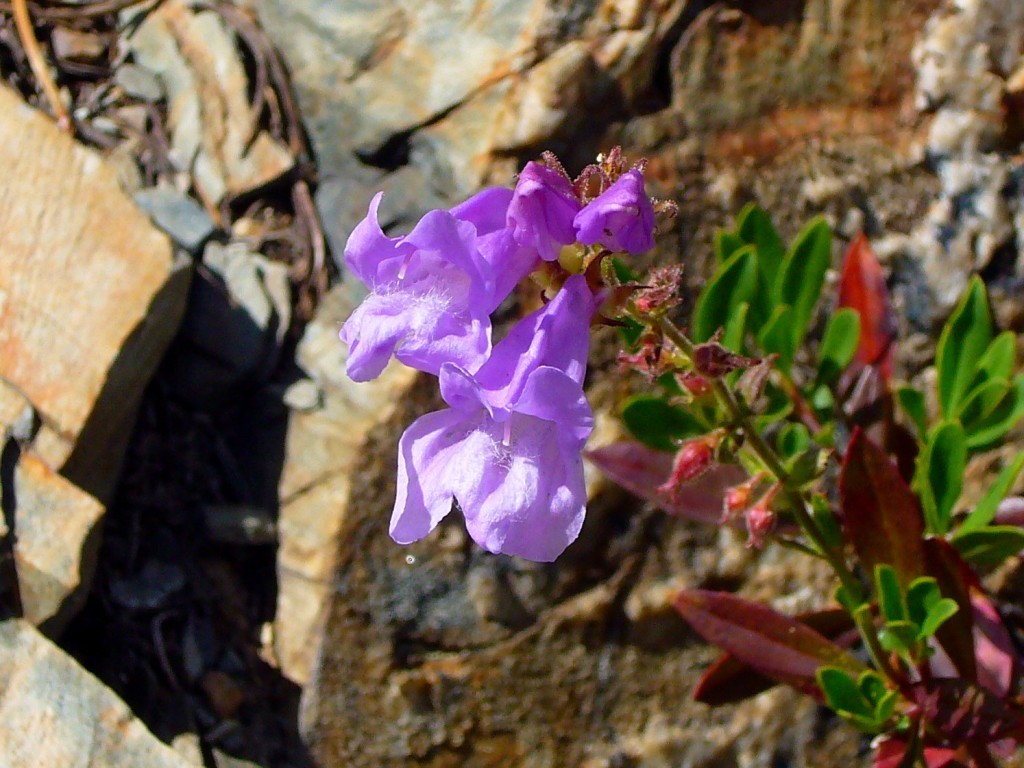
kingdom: Plantae
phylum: Tracheophyta
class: Magnoliopsida
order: Lamiales
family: Plantaginaceae
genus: Penstemon
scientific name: Penstemon fruticosus
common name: Bush penstemon
